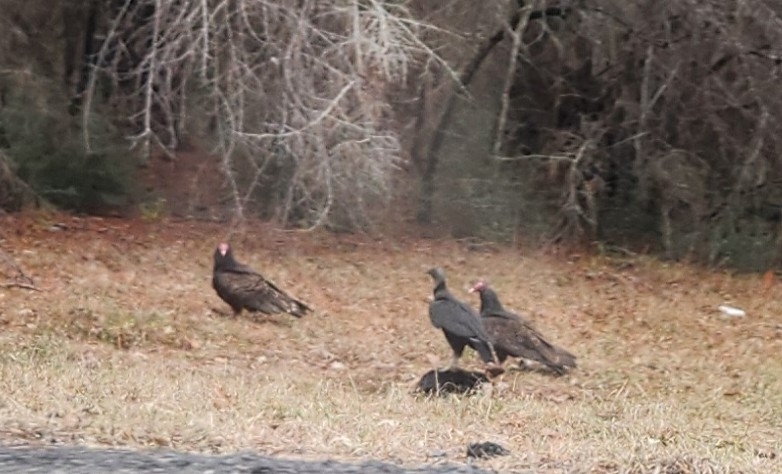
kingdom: Animalia
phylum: Chordata
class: Aves
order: Accipitriformes
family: Cathartidae
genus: Cathartes
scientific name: Cathartes aura
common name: Turkey vulture
